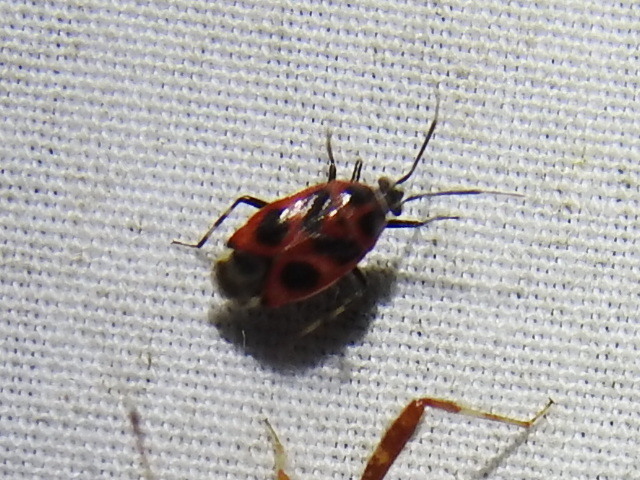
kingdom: Animalia
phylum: Arthropoda
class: Insecta
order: Hemiptera
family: Miridae
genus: Deraeocoris
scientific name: Deraeocoris histrio
